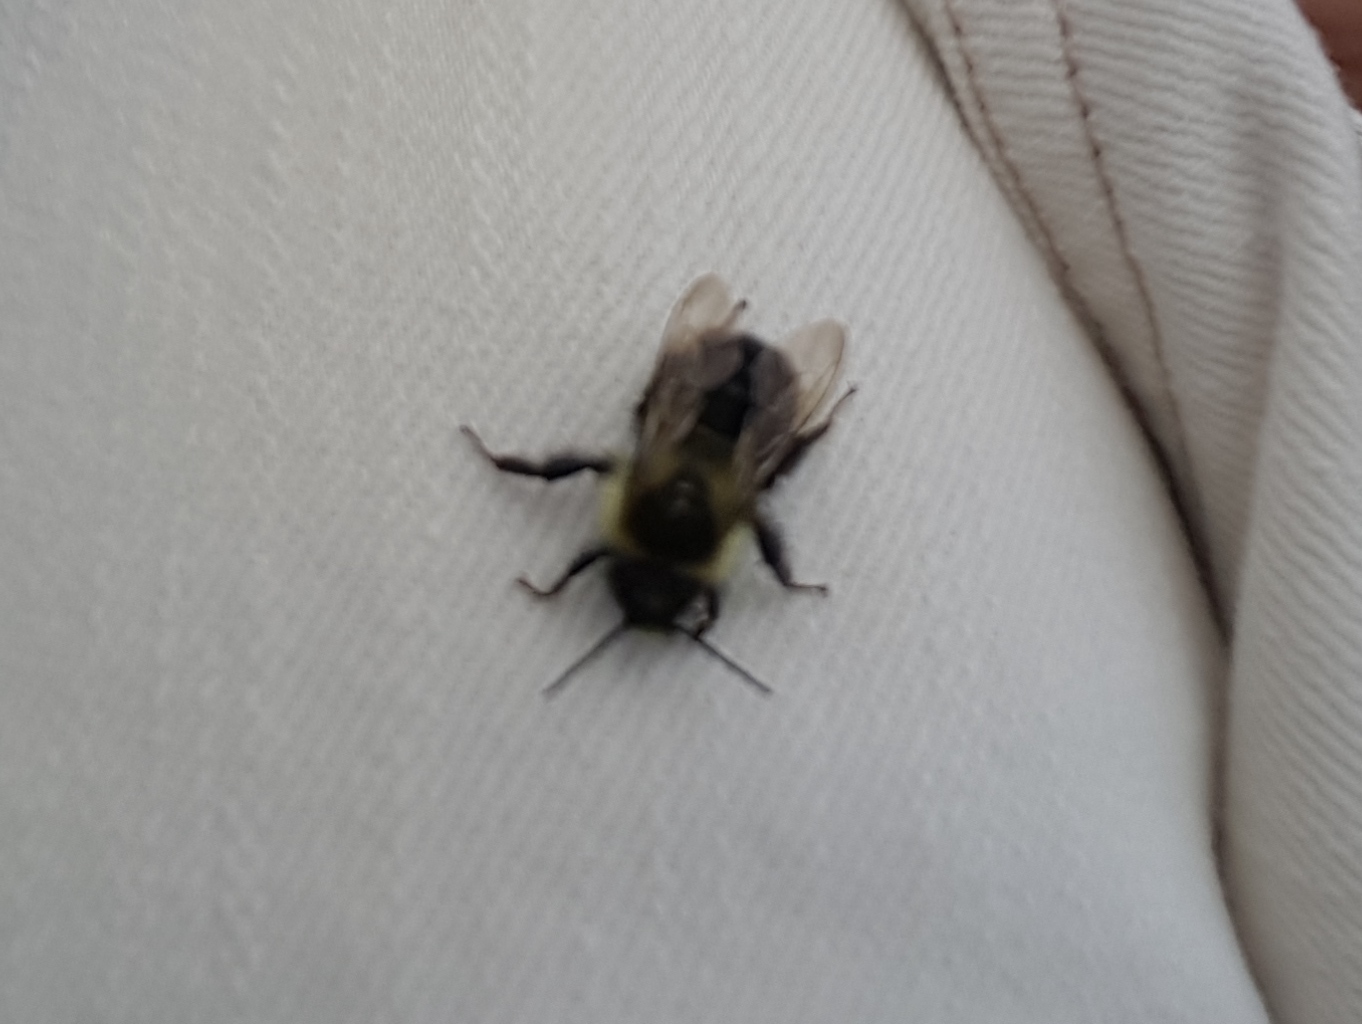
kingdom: Animalia
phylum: Arthropoda
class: Insecta
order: Hymenoptera
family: Apidae
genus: Bombus
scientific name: Bombus impatiens
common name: Common eastern bumble bee
